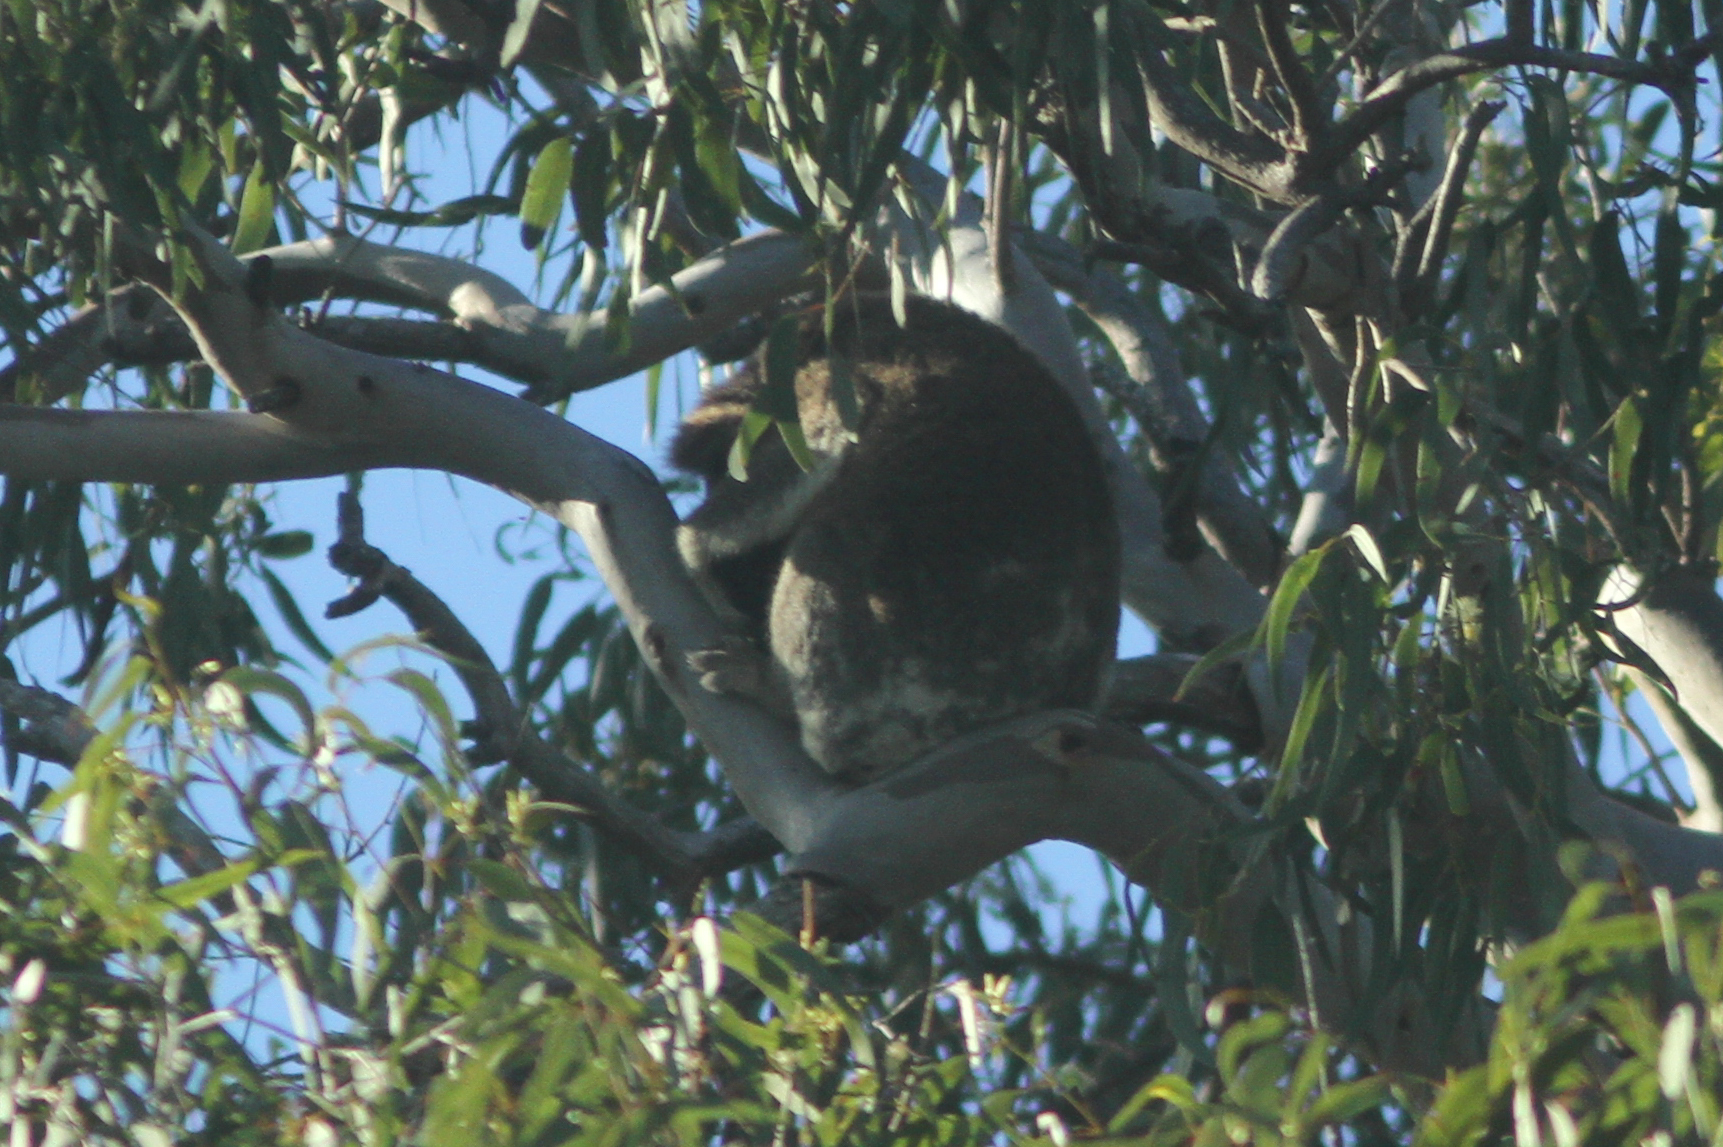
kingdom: Animalia
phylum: Chordata
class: Mammalia
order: Diprotodontia
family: Phascolarctidae
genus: Phascolarctos
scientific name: Phascolarctos cinereus
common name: Koala
